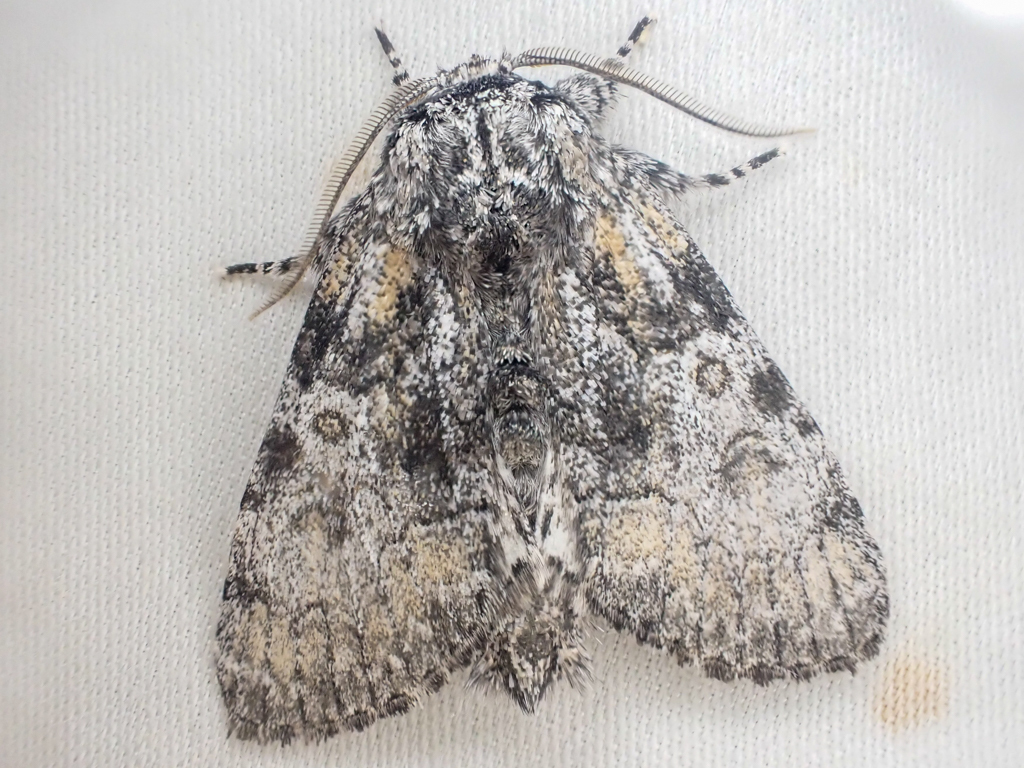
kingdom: Animalia
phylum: Arthropoda
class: Insecta
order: Lepidoptera
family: Noctuidae
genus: Raphia
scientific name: Raphia frater
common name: Brother
